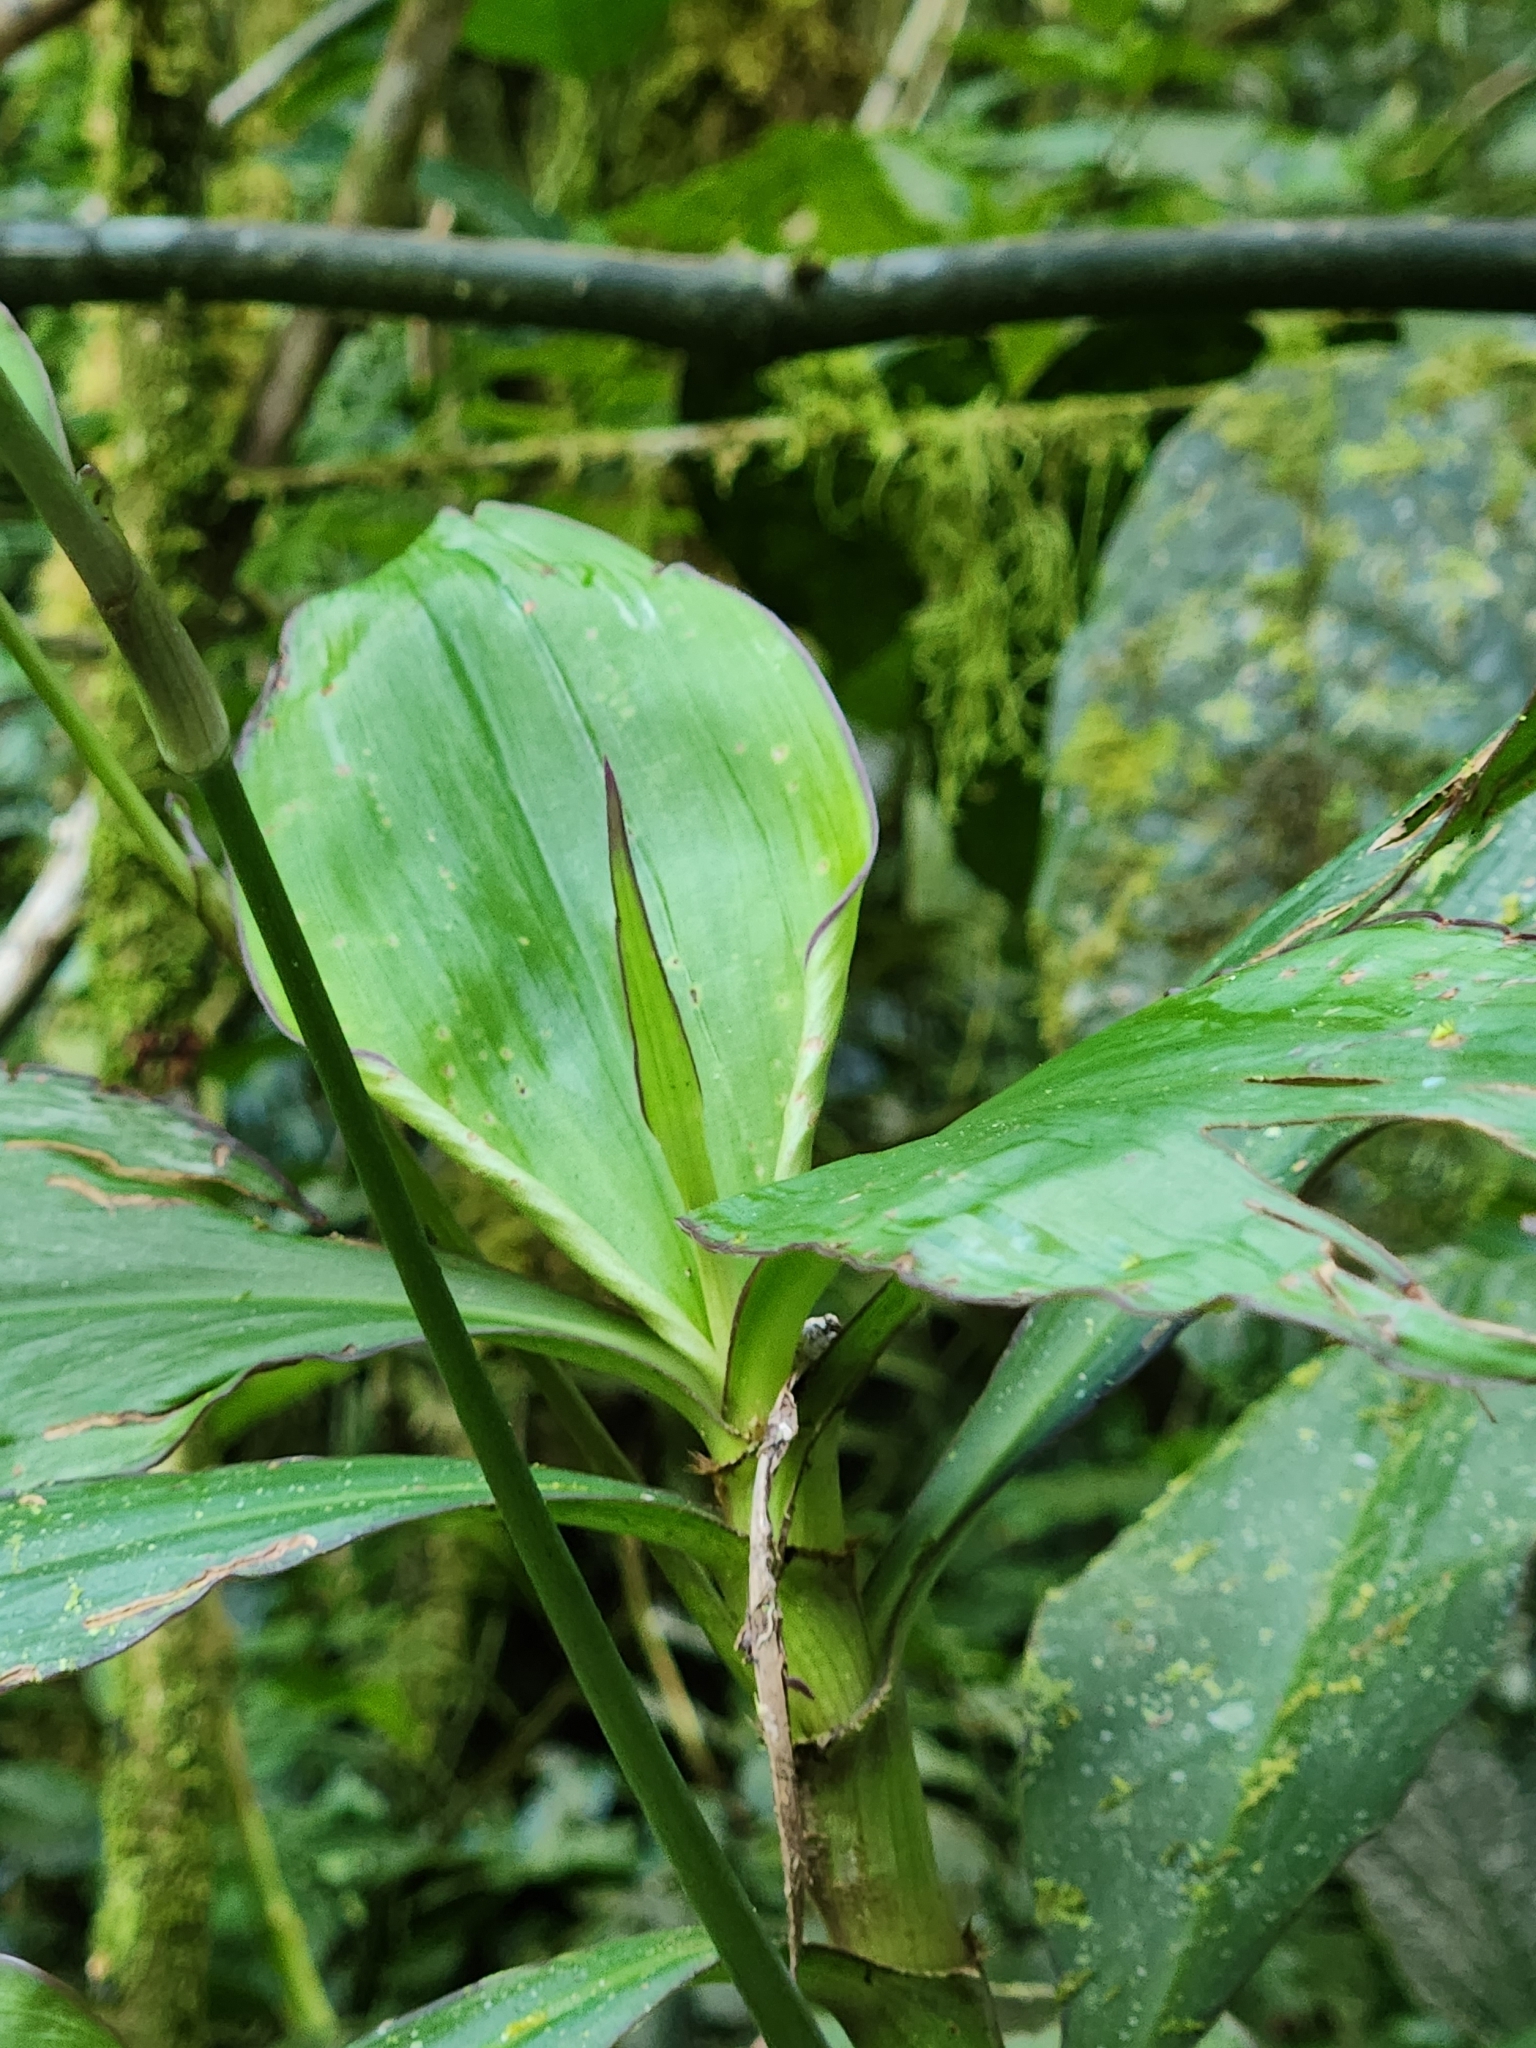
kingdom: Plantae
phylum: Tracheophyta
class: Liliopsida
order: Commelinales
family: Commelinaceae
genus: Tradescantia
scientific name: Tradescantia zanonia
